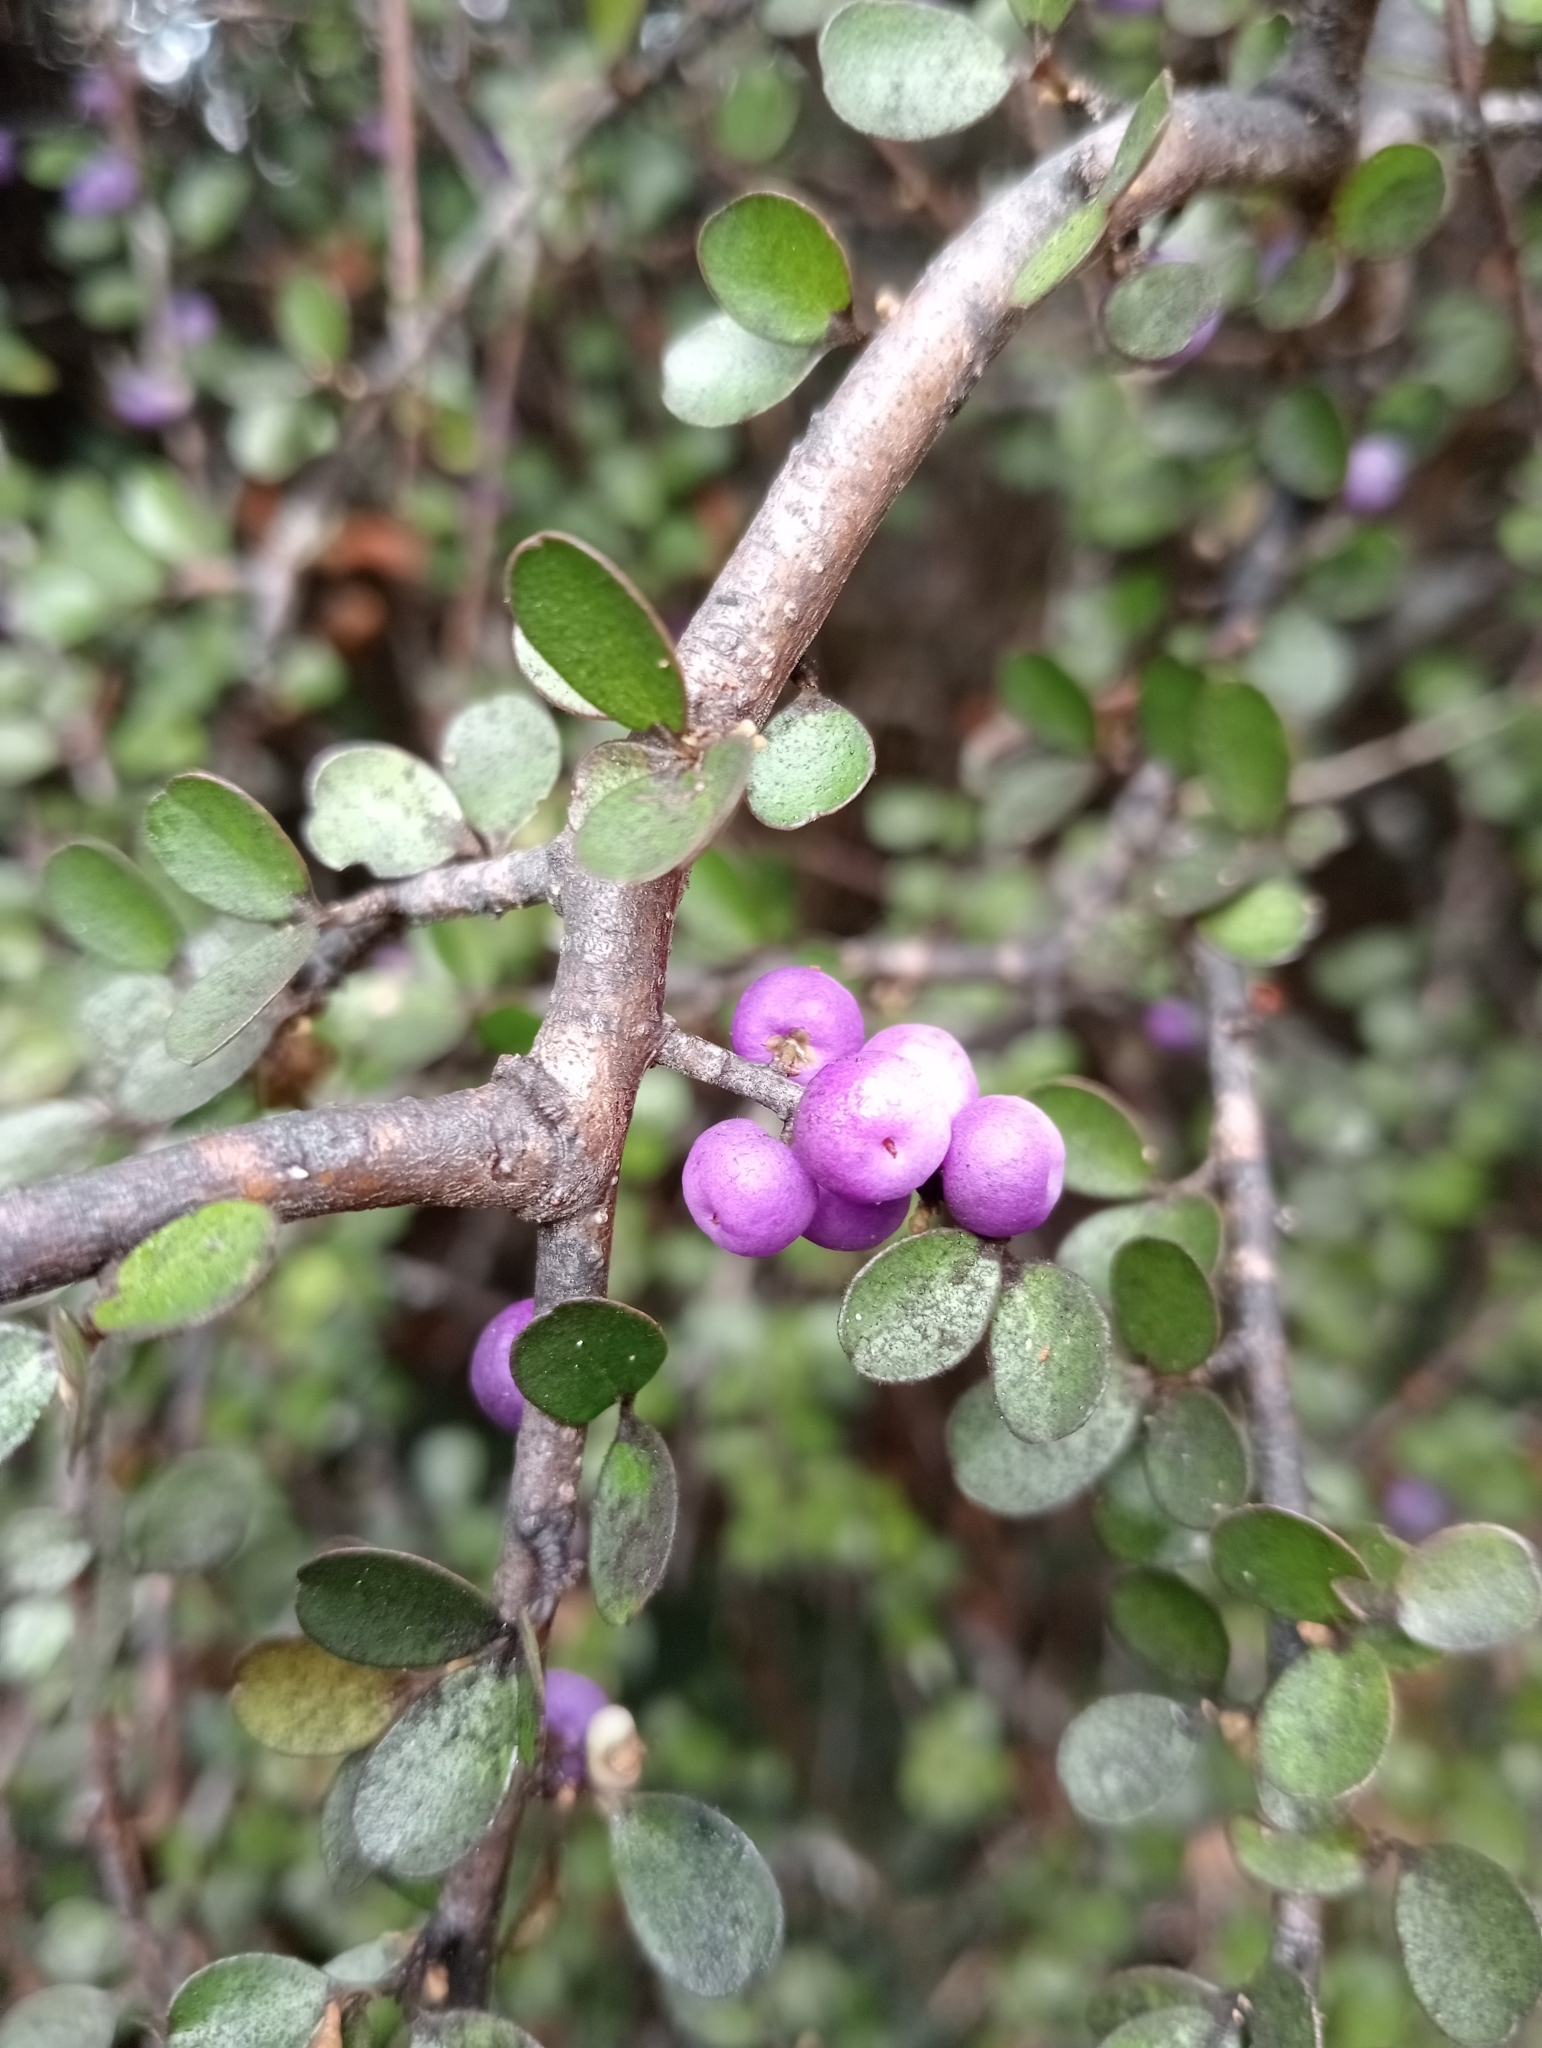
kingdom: Plantae
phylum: Tracheophyta
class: Magnoliopsida
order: Ericales
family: Primulaceae
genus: Myrsine
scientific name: Myrsine divaricata
